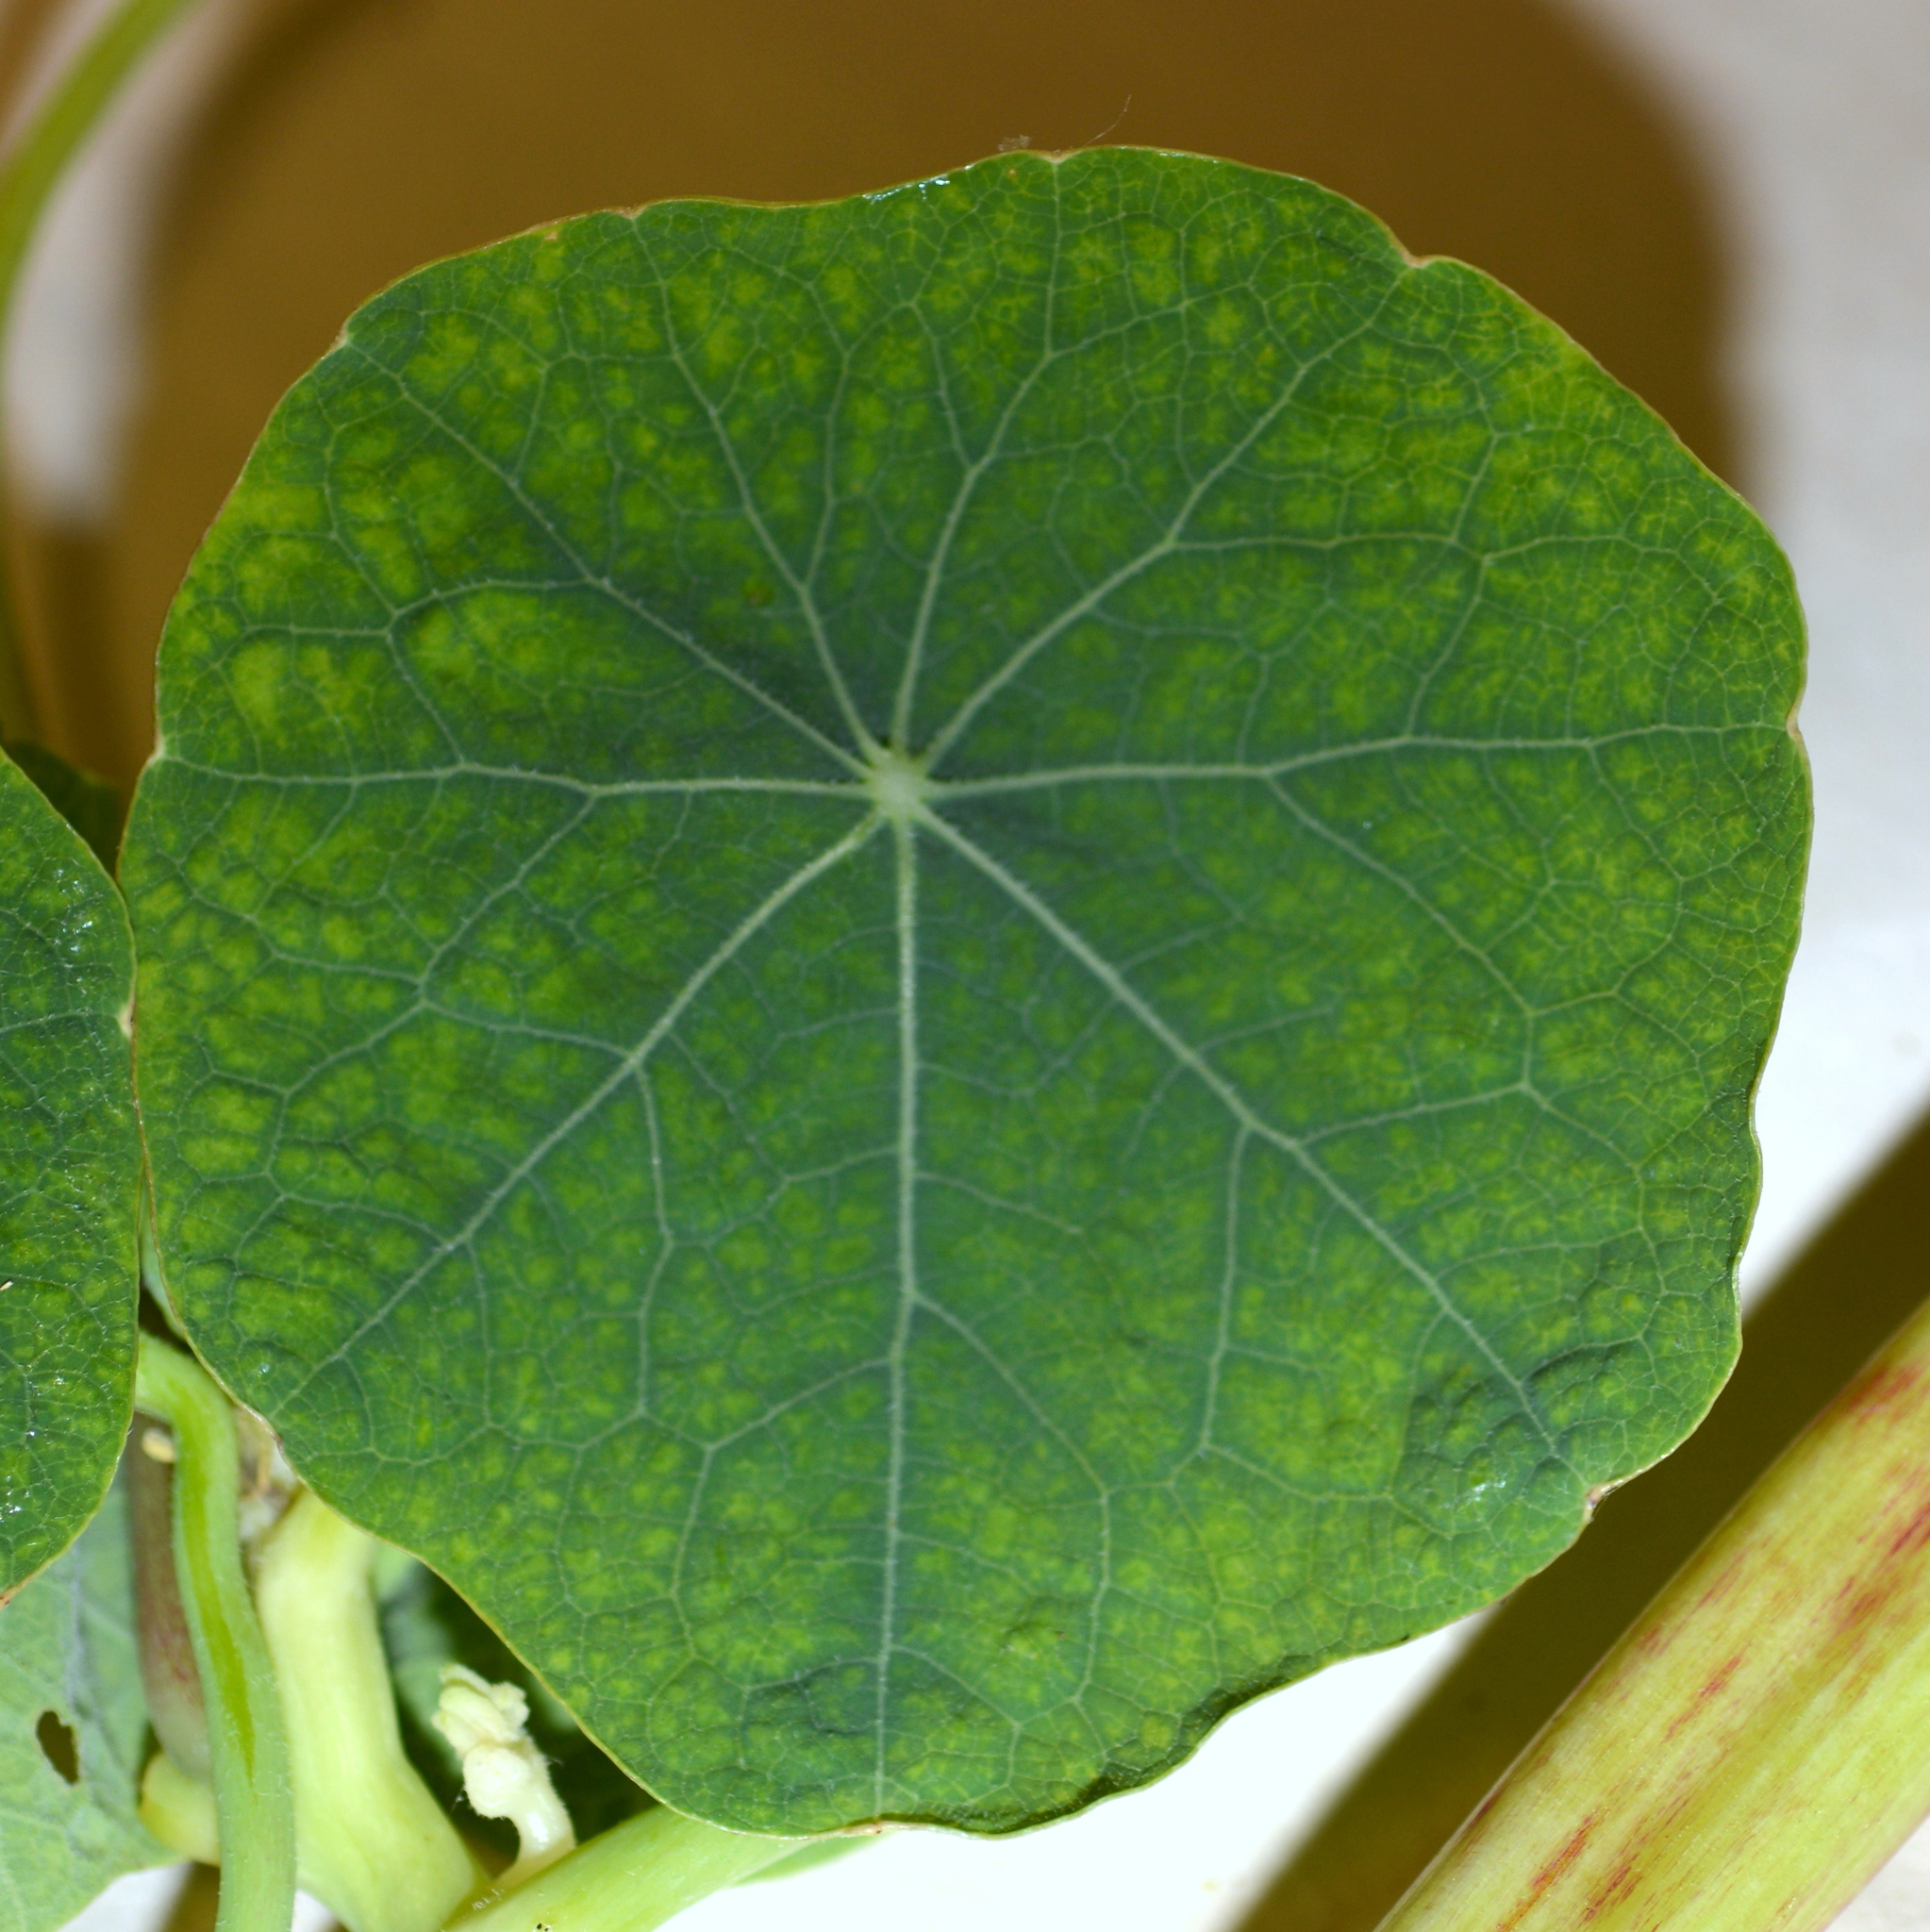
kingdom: Plantae
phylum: Tracheophyta
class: Magnoliopsida
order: Brassicales
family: Tropaeolaceae
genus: Tropaeolum
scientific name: Tropaeolum majus
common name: Nasturtium
